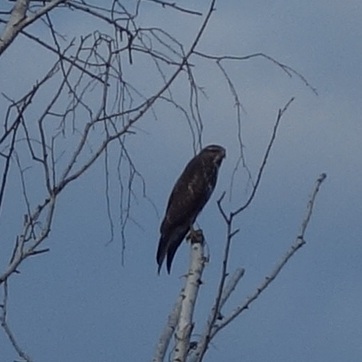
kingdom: Animalia
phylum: Chordata
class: Aves
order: Accipitriformes
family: Accipitridae
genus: Buteo
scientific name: Buteo buteo
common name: Common buzzard
